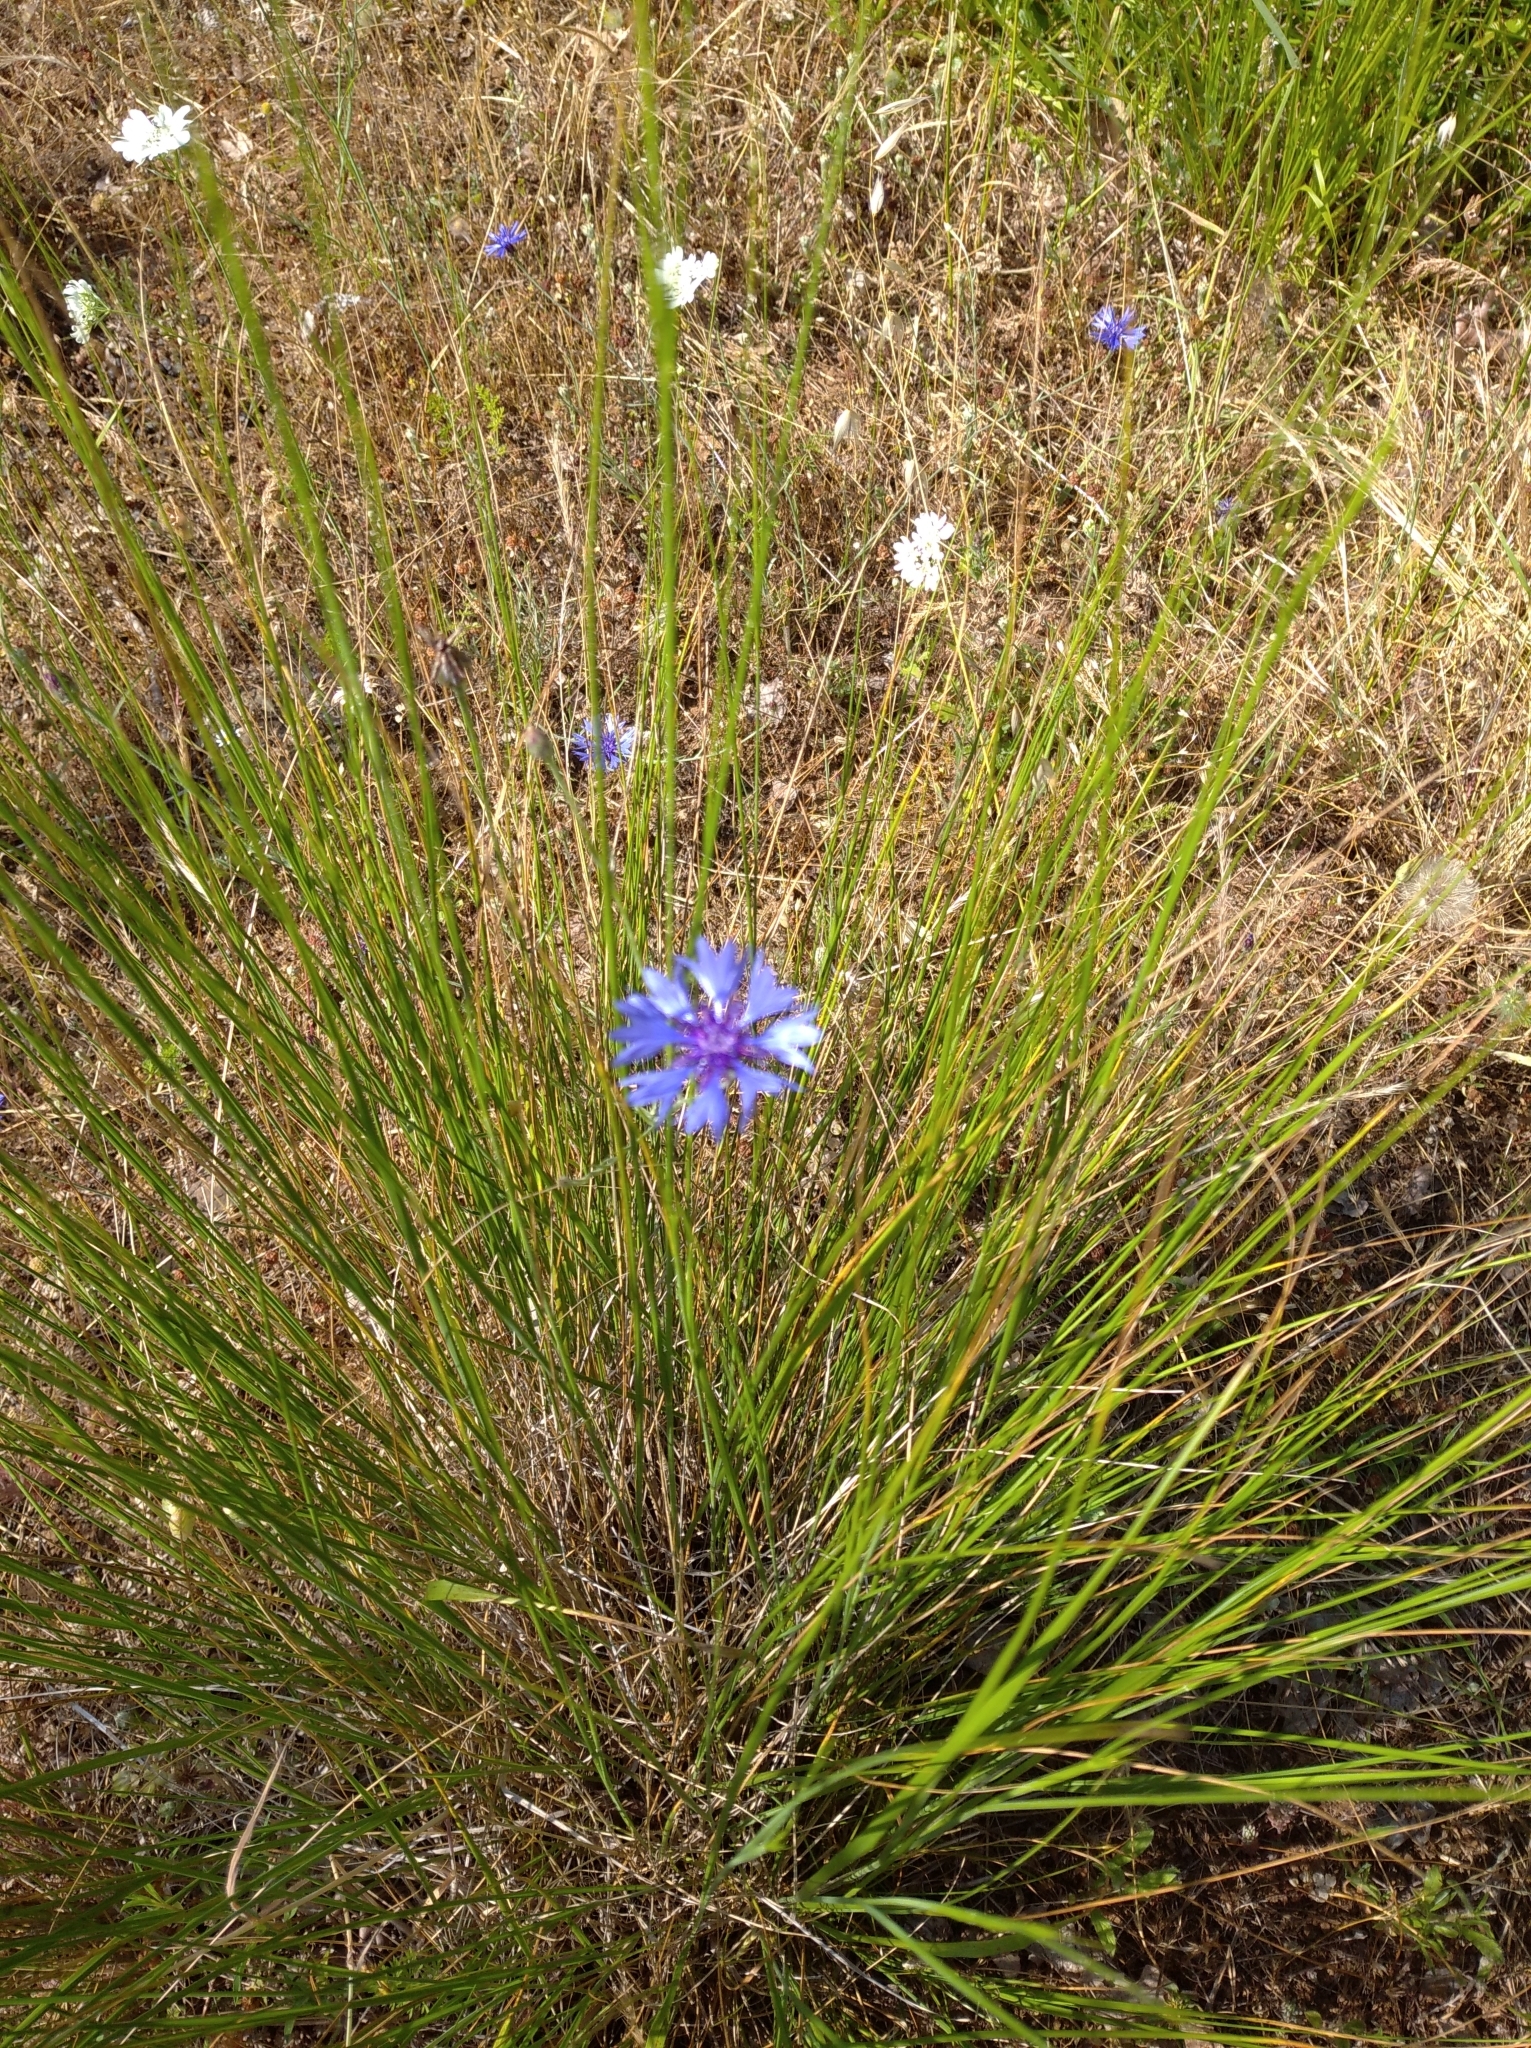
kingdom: Plantae
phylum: Tracheophyta
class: Magnoliopsida
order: Asterales
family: Asteraceae
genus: Centaurea
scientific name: Centaurea cyanus
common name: Cornflower
